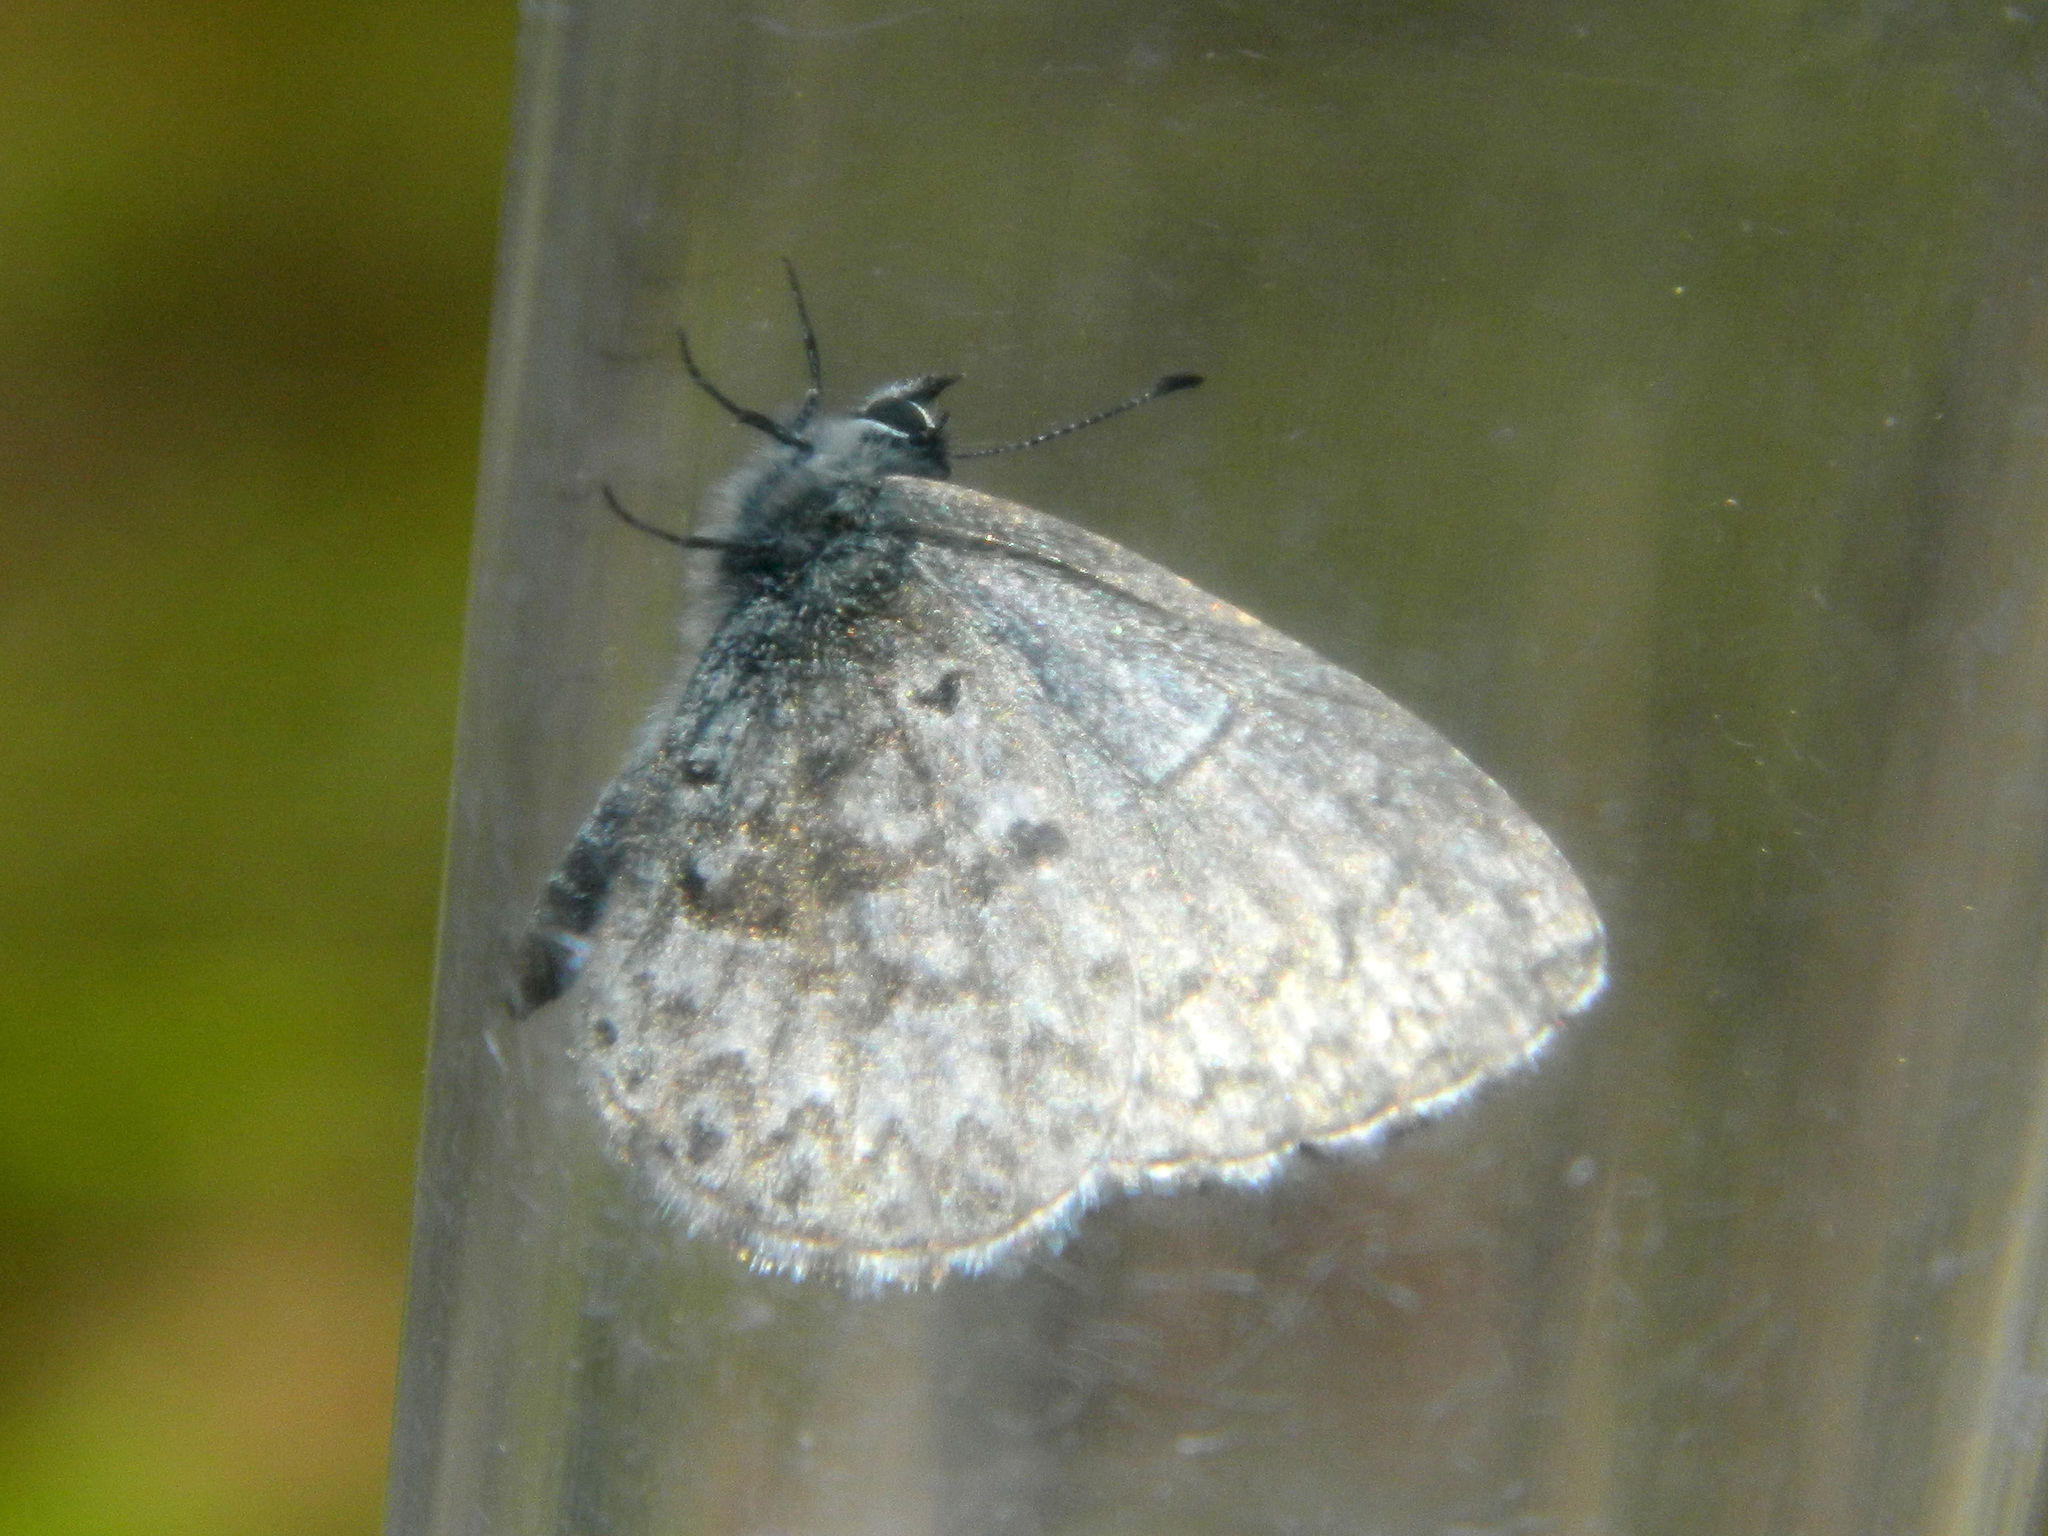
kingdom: Animalia
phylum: Arthropoda
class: Insecta
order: Lepidoptera
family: Lycaenidae
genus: Celastrina
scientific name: Celastrina lucia
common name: Lucia azure
